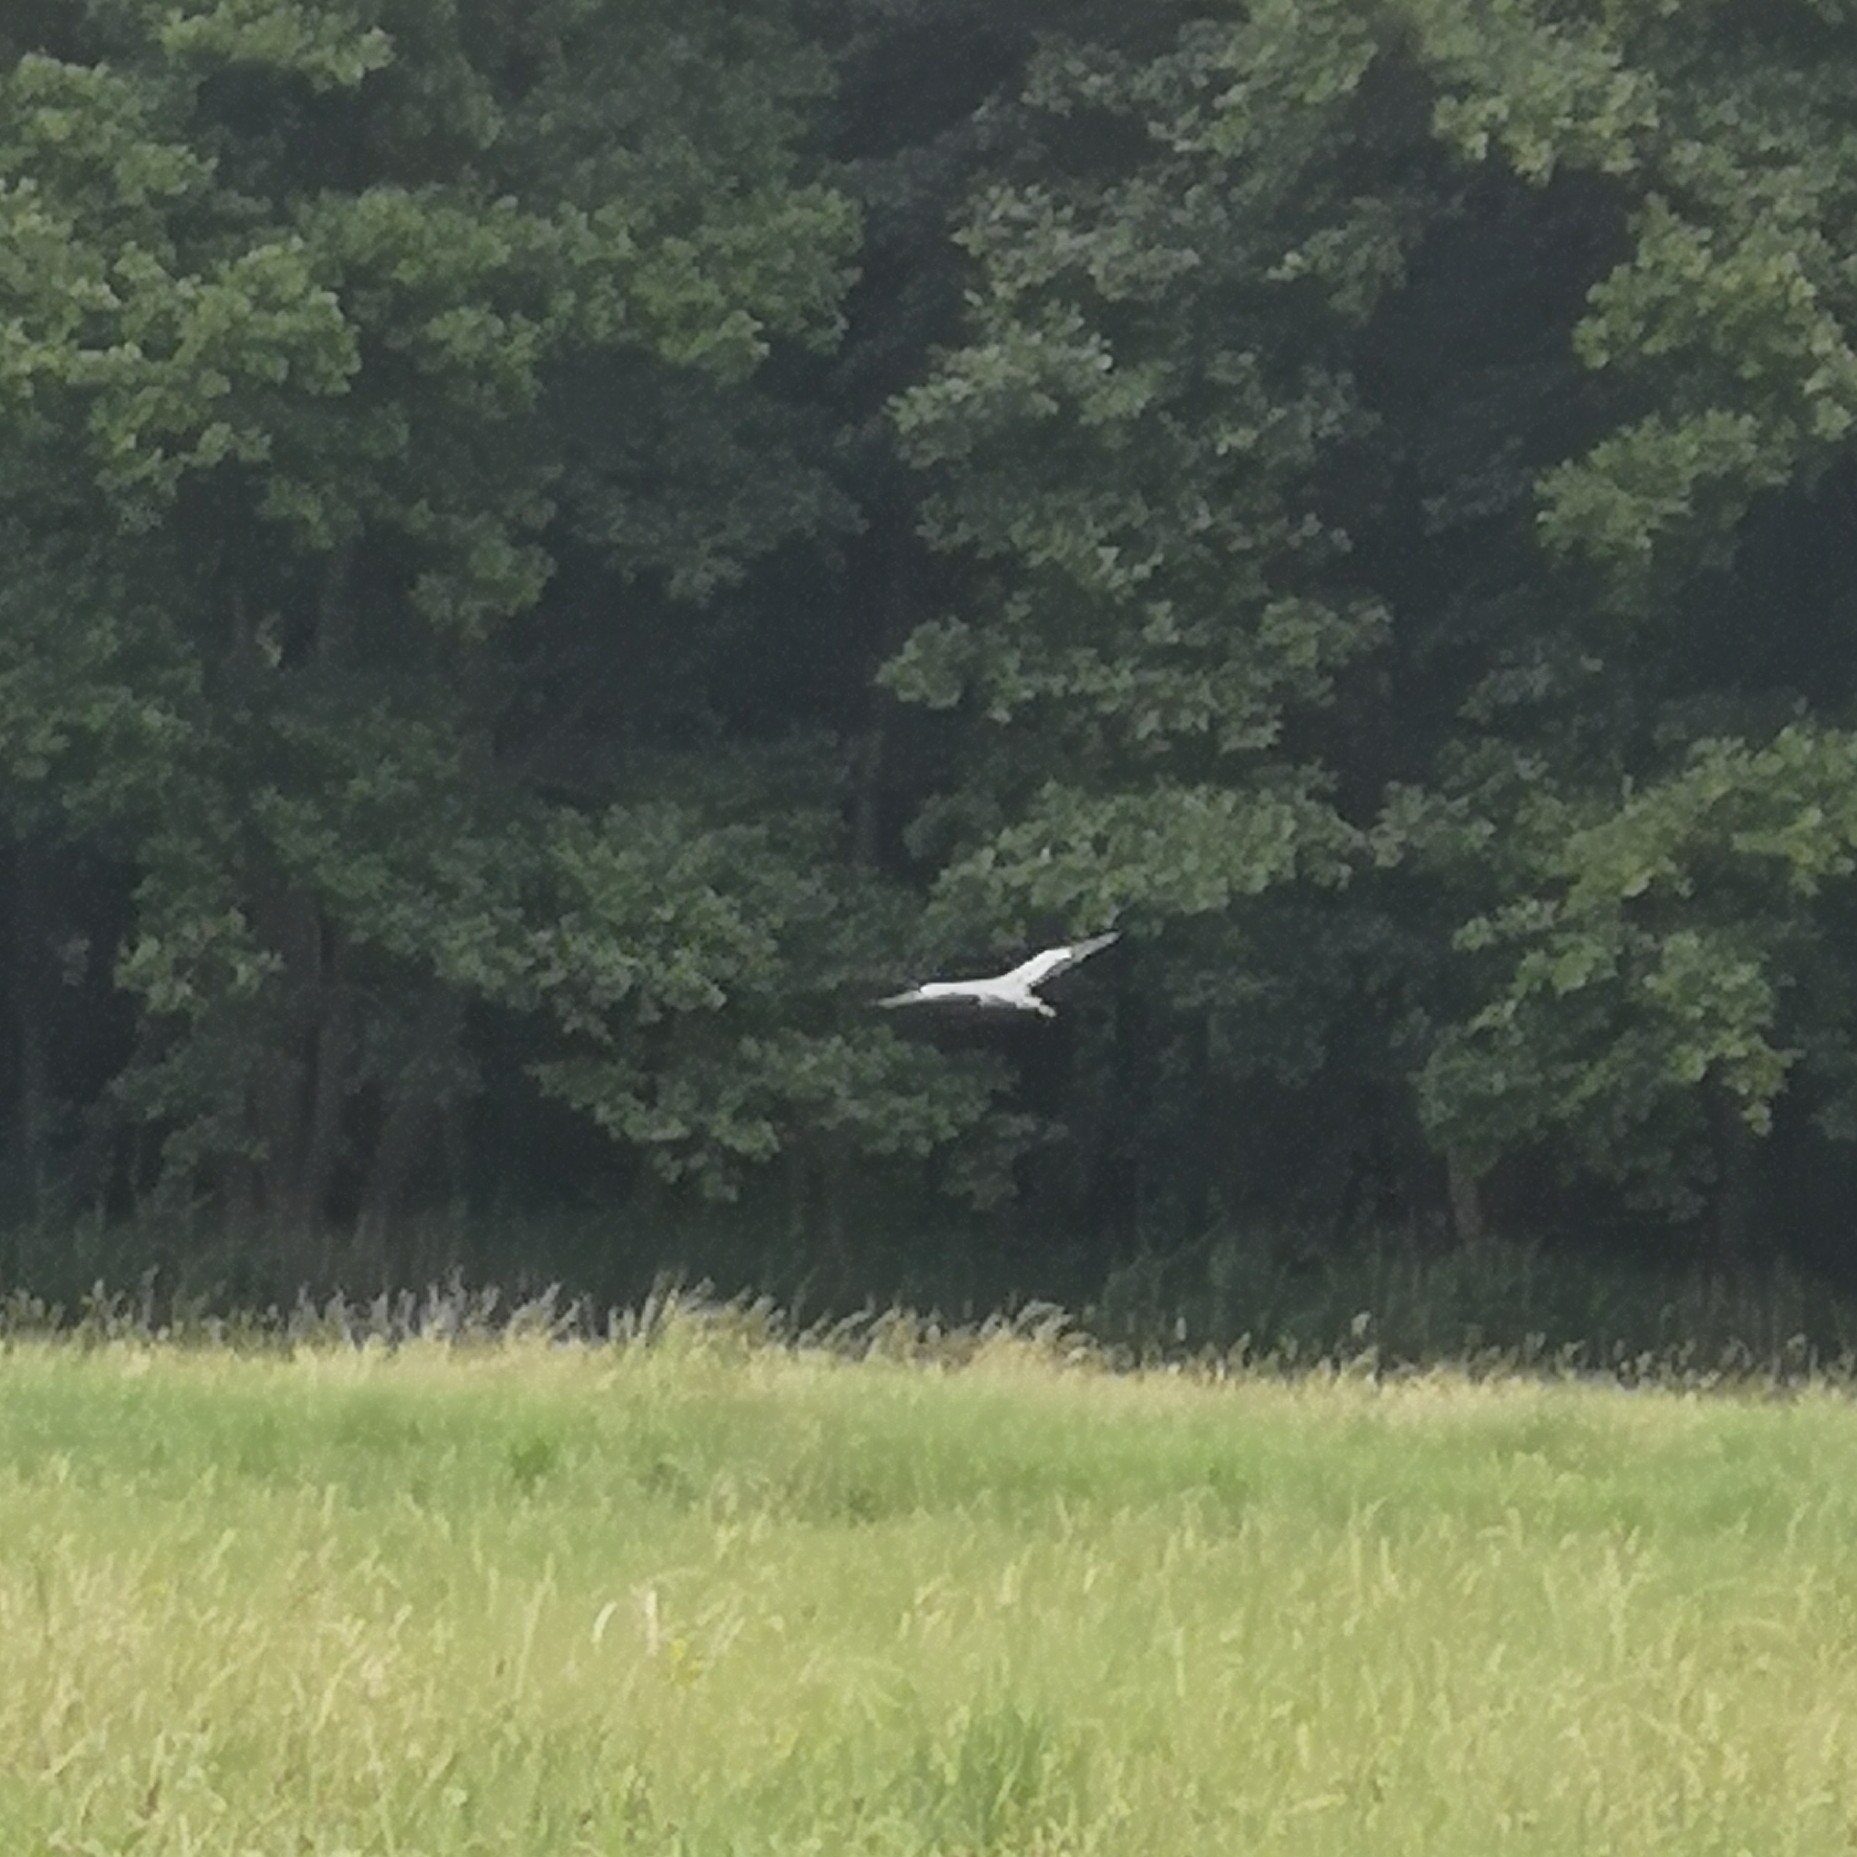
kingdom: Animalia
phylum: Chordata
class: Aves
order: Pelecaniformes
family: Ardeidae
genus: Ardea
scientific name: Ardea cinerea
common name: Grey heron
